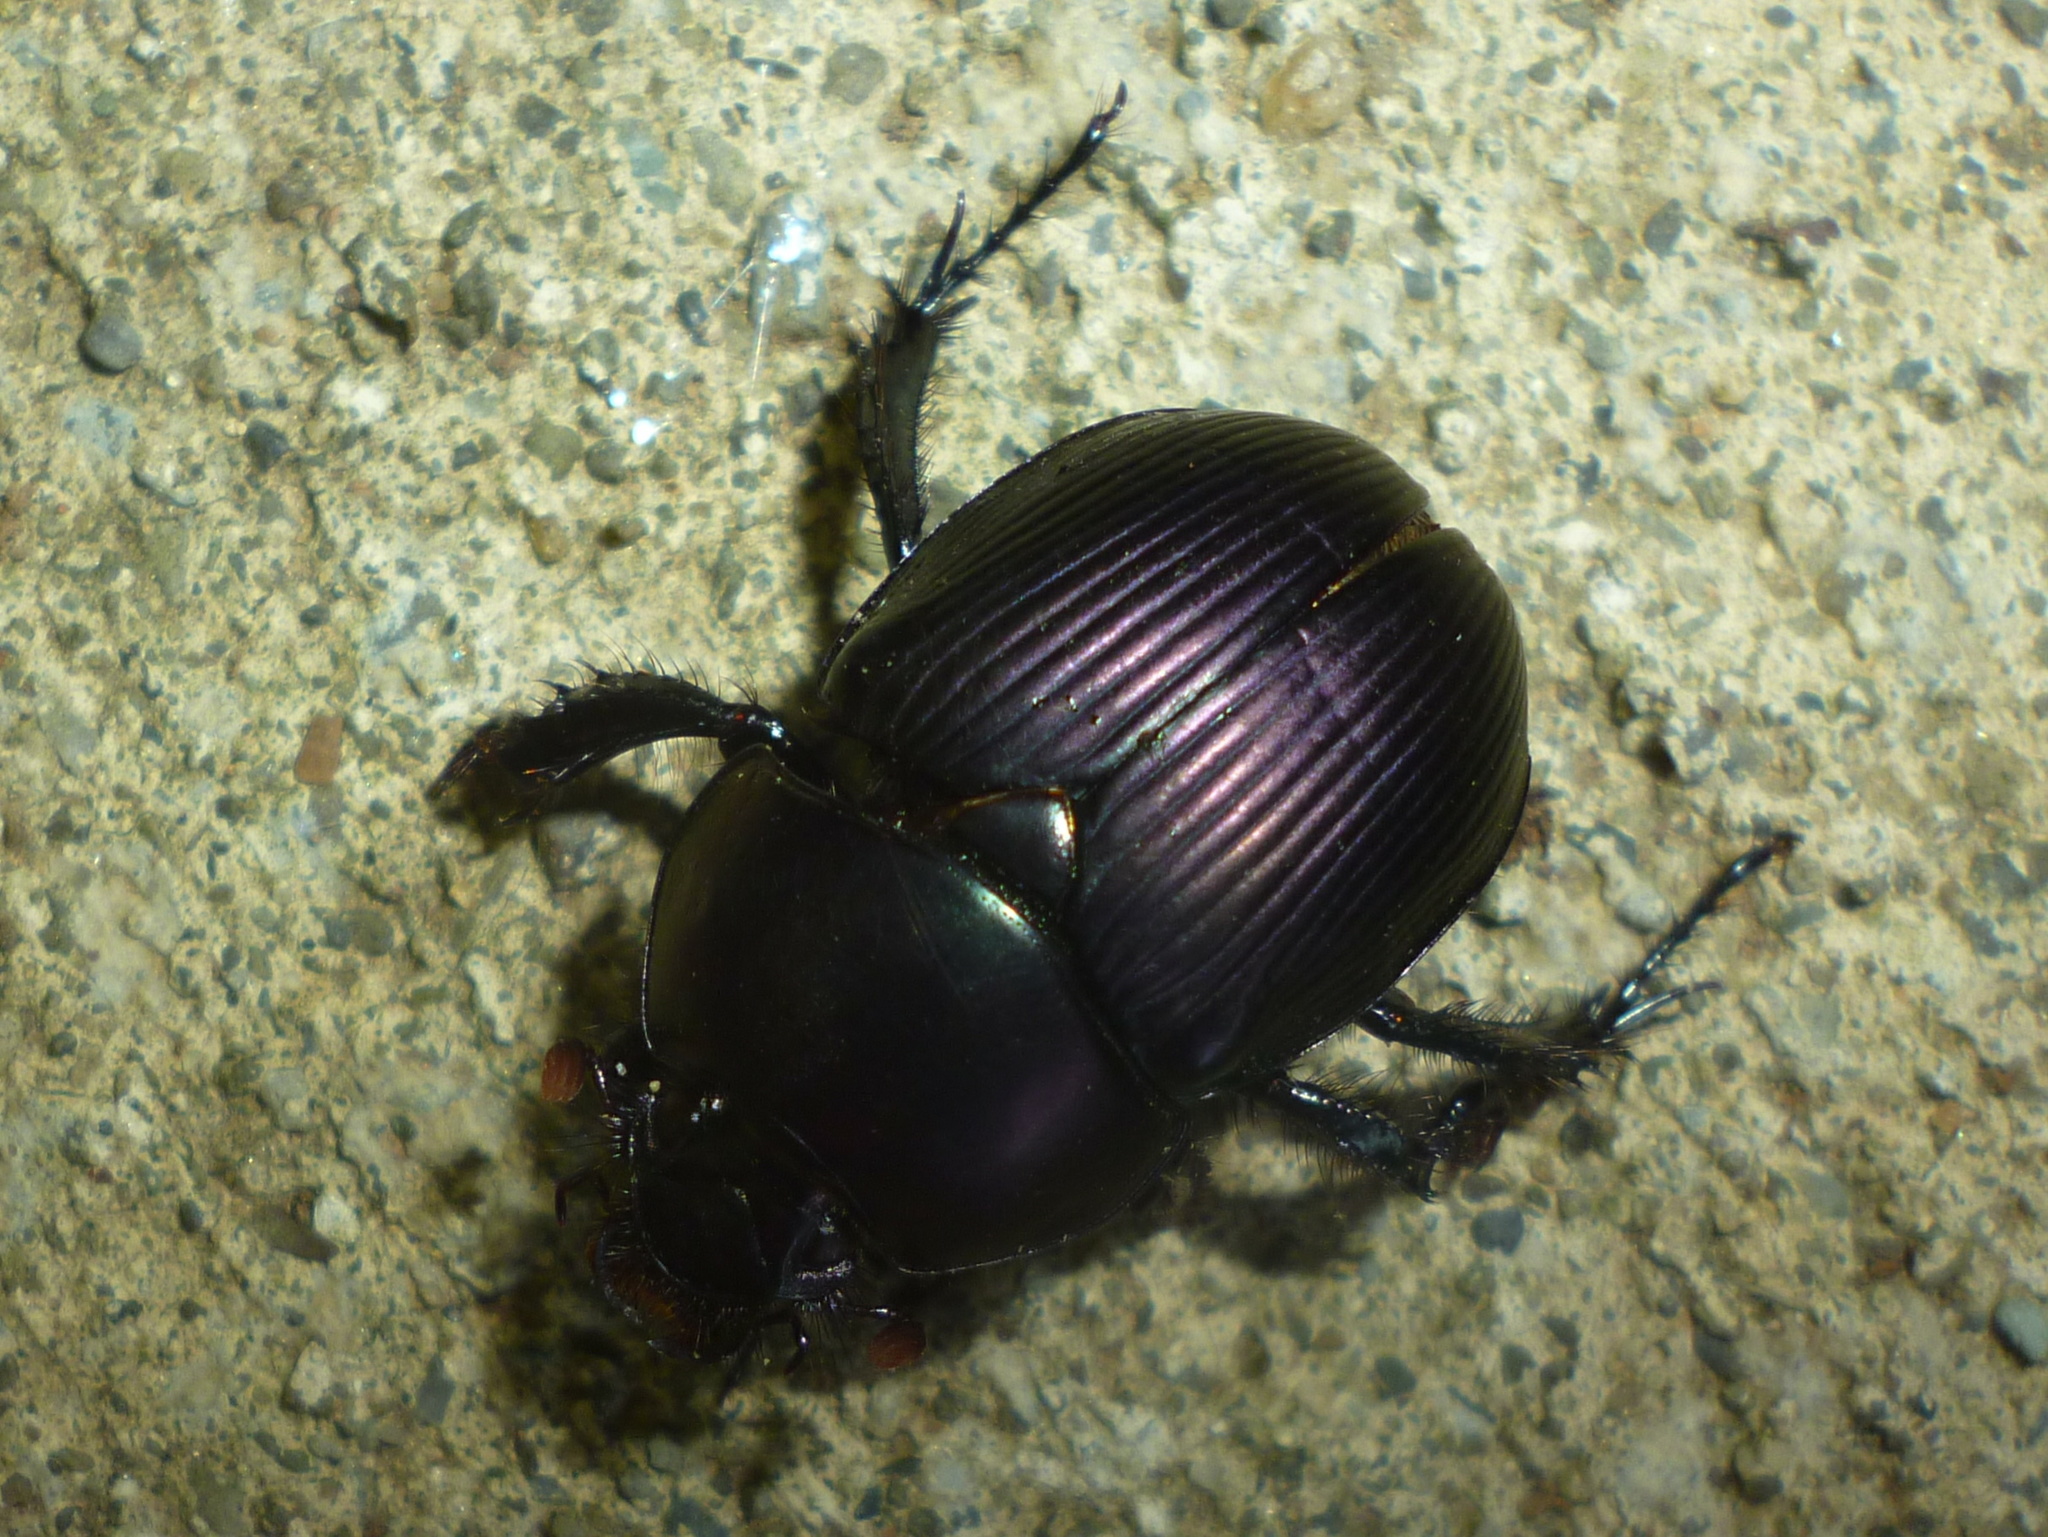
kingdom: Animalia
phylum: Arthropoda
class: Insecta
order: Coleoptera
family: Geotrupidae
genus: Cnemotrupes
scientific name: Cnemotrupes semiopacus
